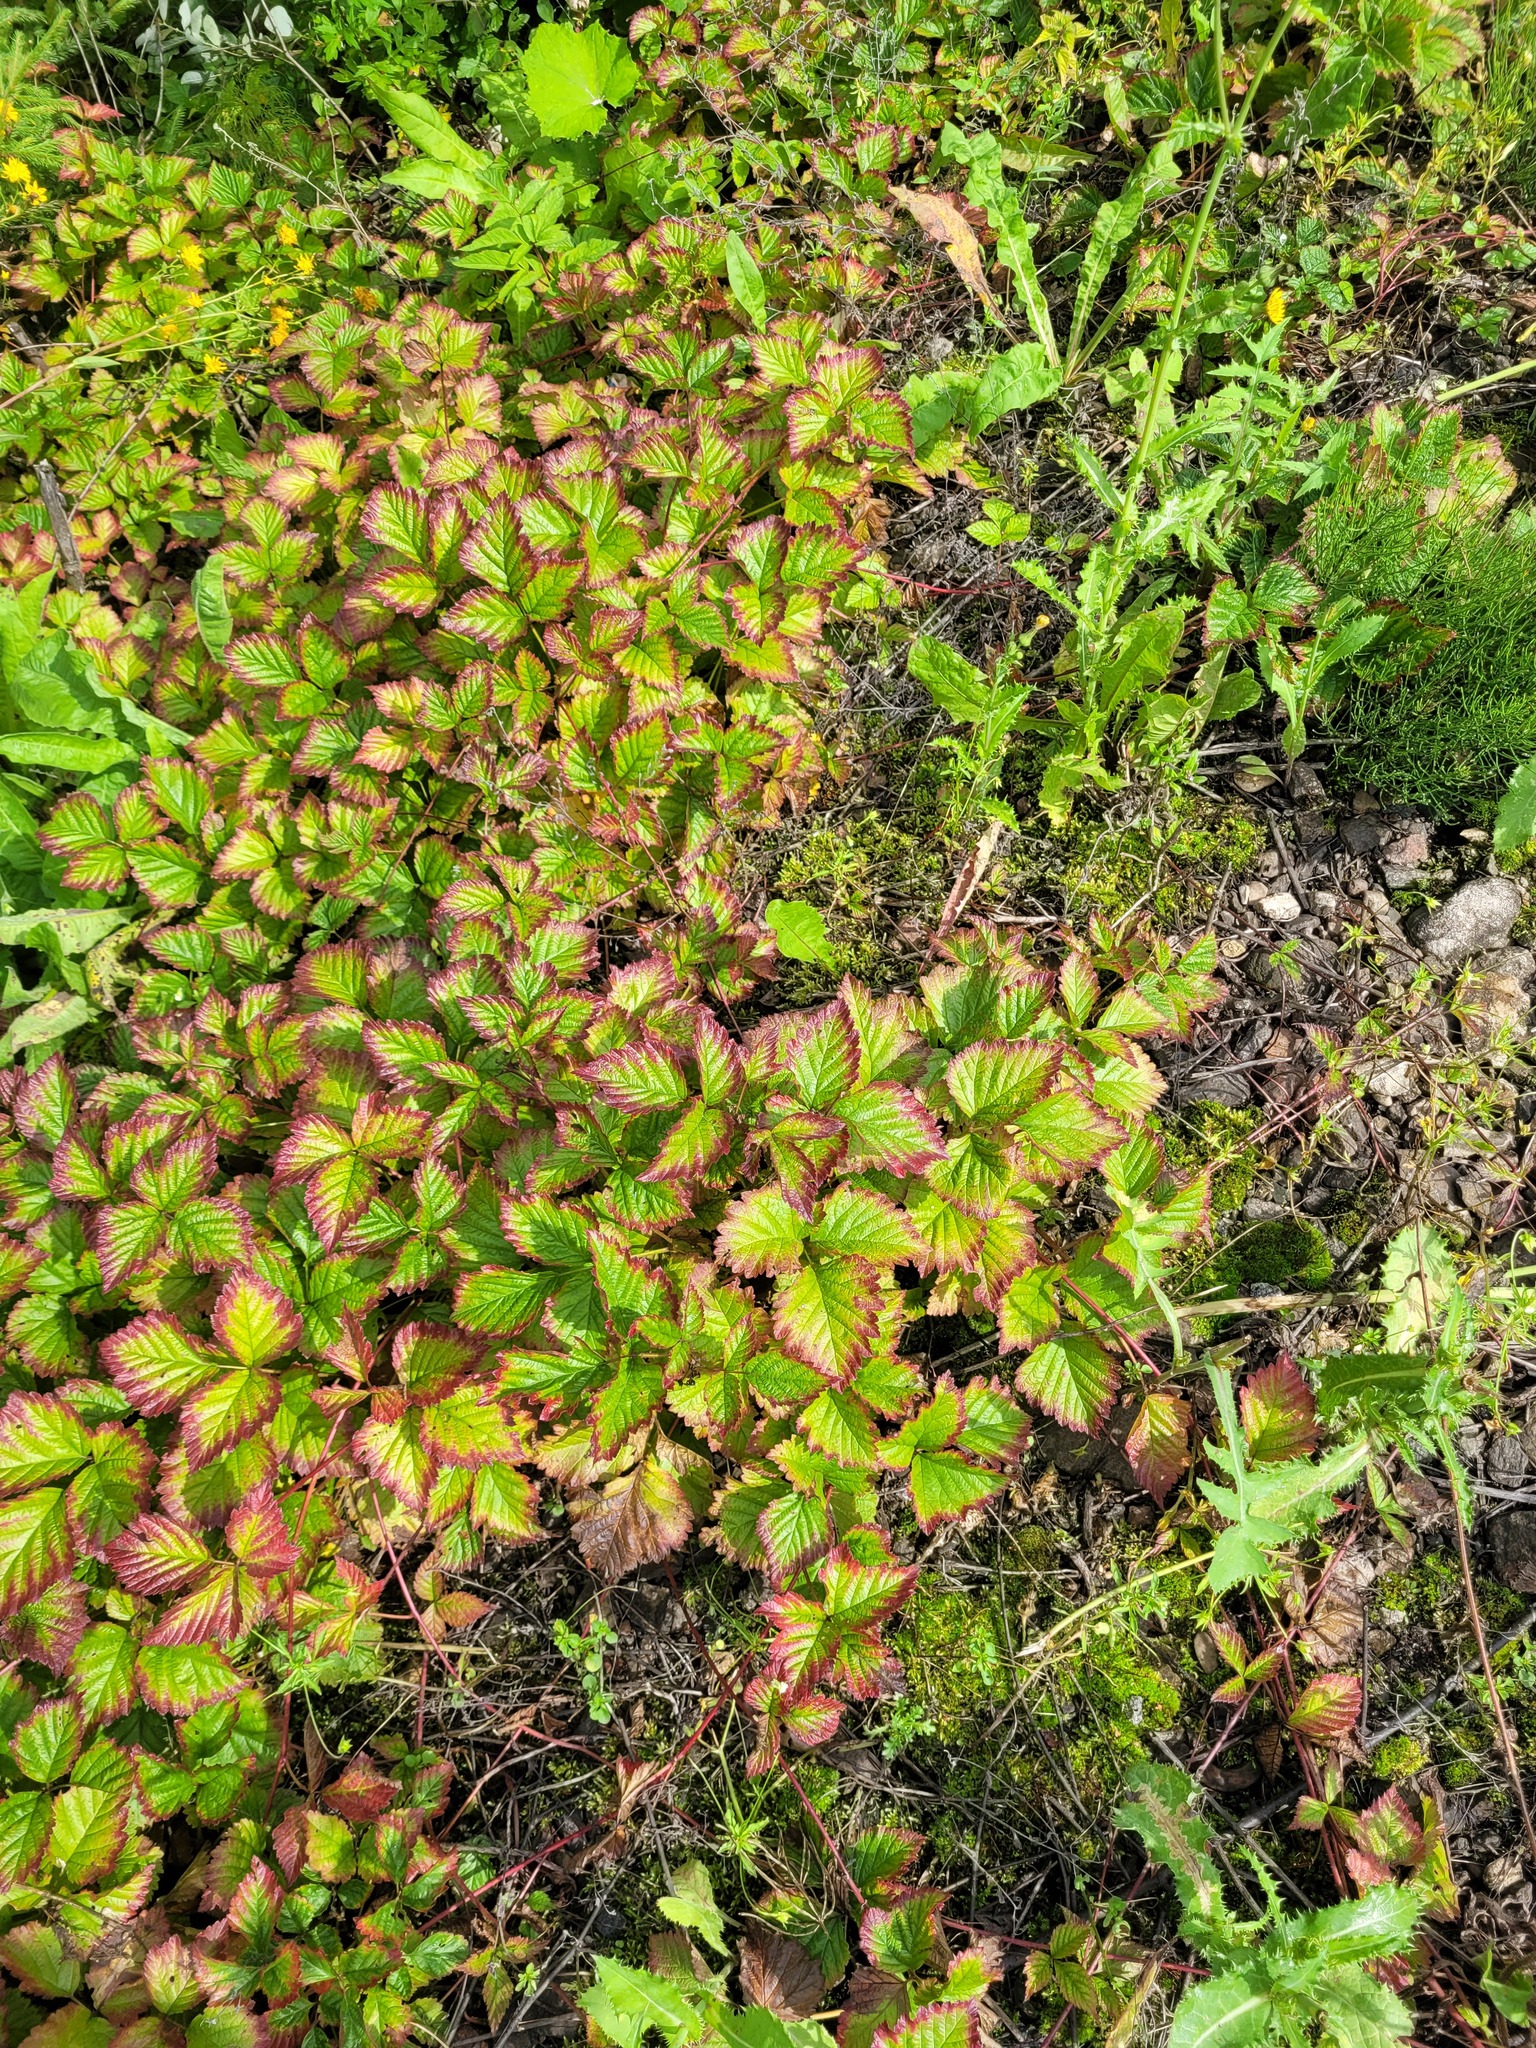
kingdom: Plantae
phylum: Tracheophyta
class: Magnoliopsida
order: Rosales
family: Rosaceae
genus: Rubus
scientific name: Rubus saxatilis
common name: Stone bramble
